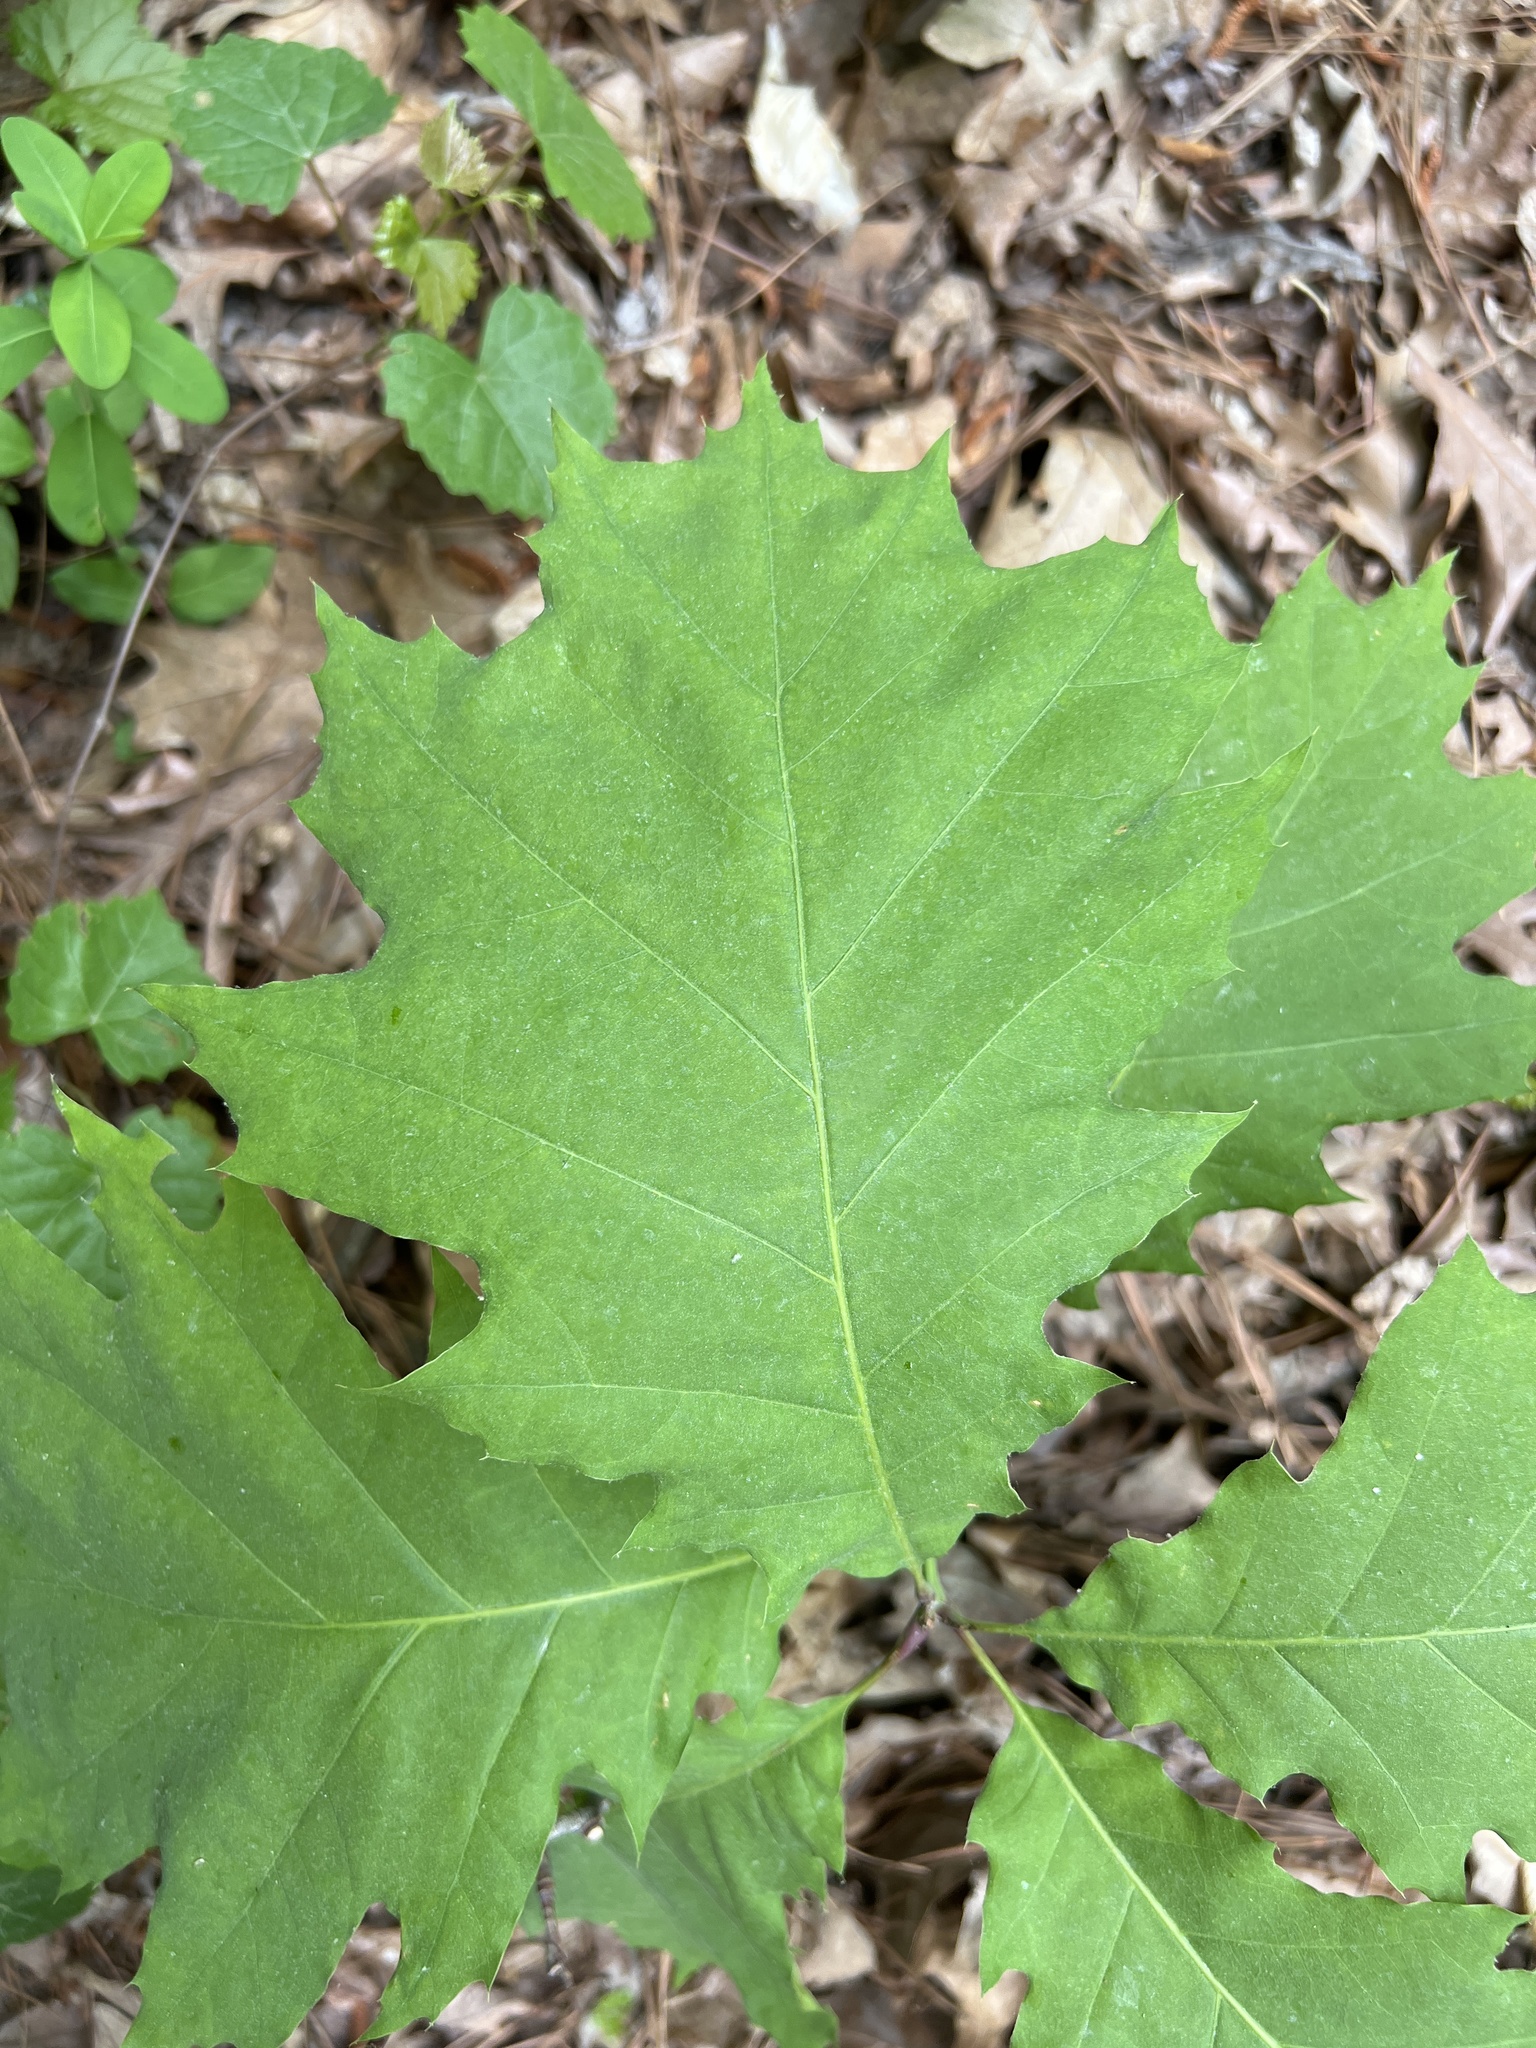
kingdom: Plantae
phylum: Tracheophyta
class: Magnoliopsida
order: Fagales
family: Fagaceae
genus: Quercus
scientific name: Quercus rubra
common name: Red oak
